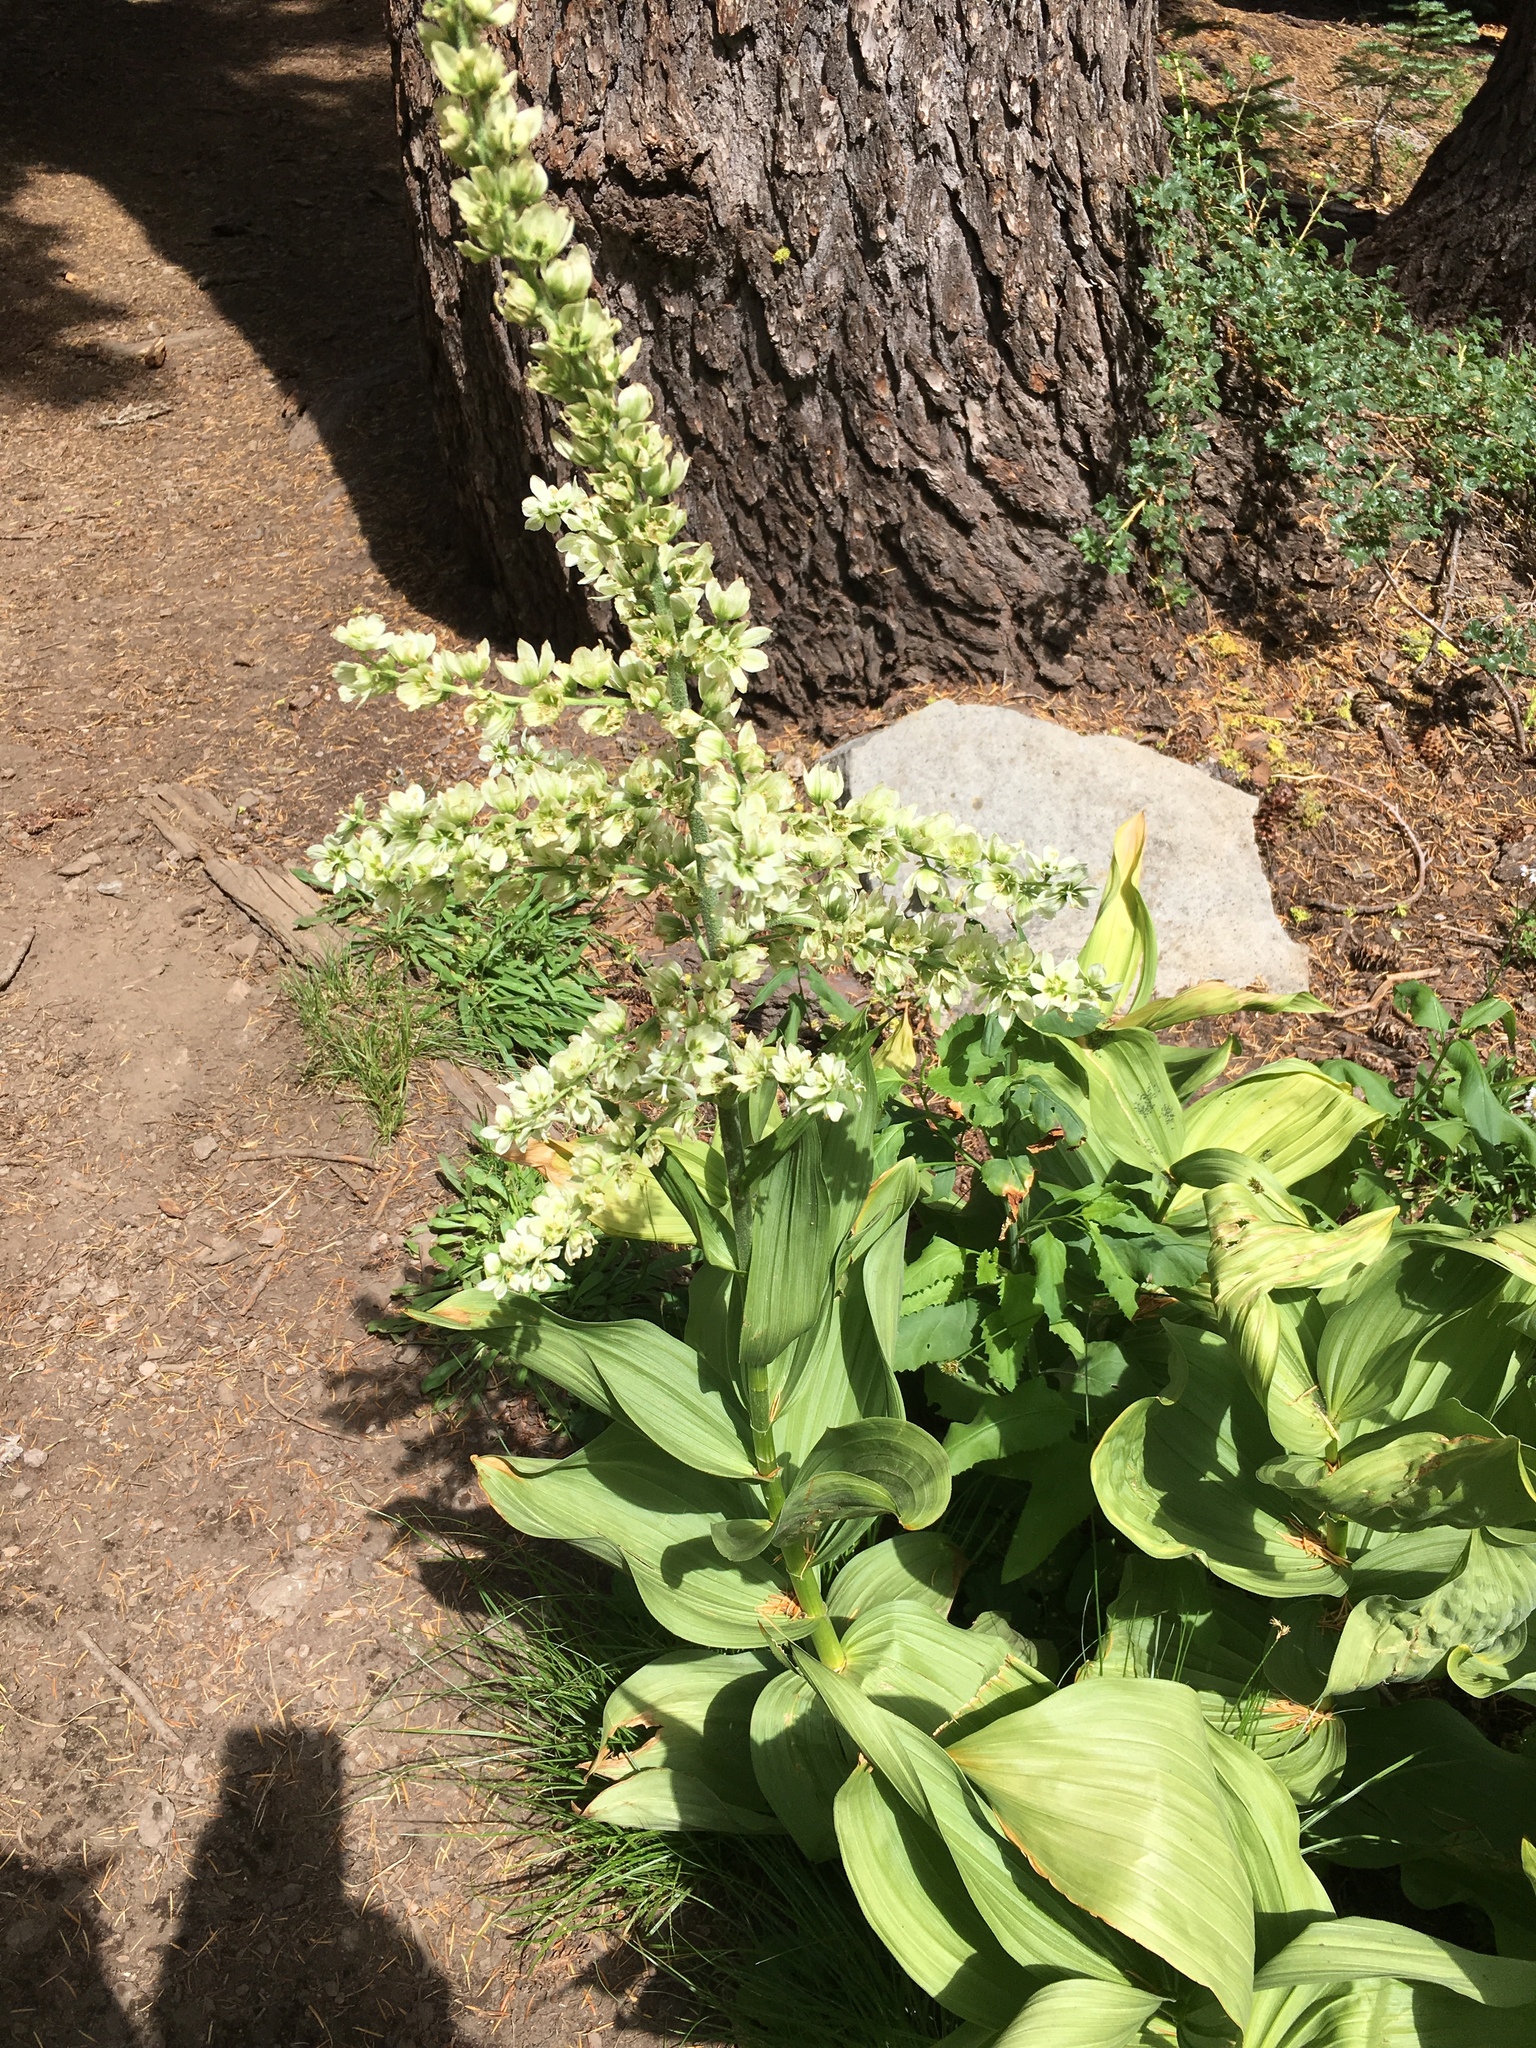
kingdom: Plantae
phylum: Tracheophyta
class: Liliopsida
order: Liliales
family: Melanthiaceae
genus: Veratrum
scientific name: Veratrum californicum
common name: California veratrum
